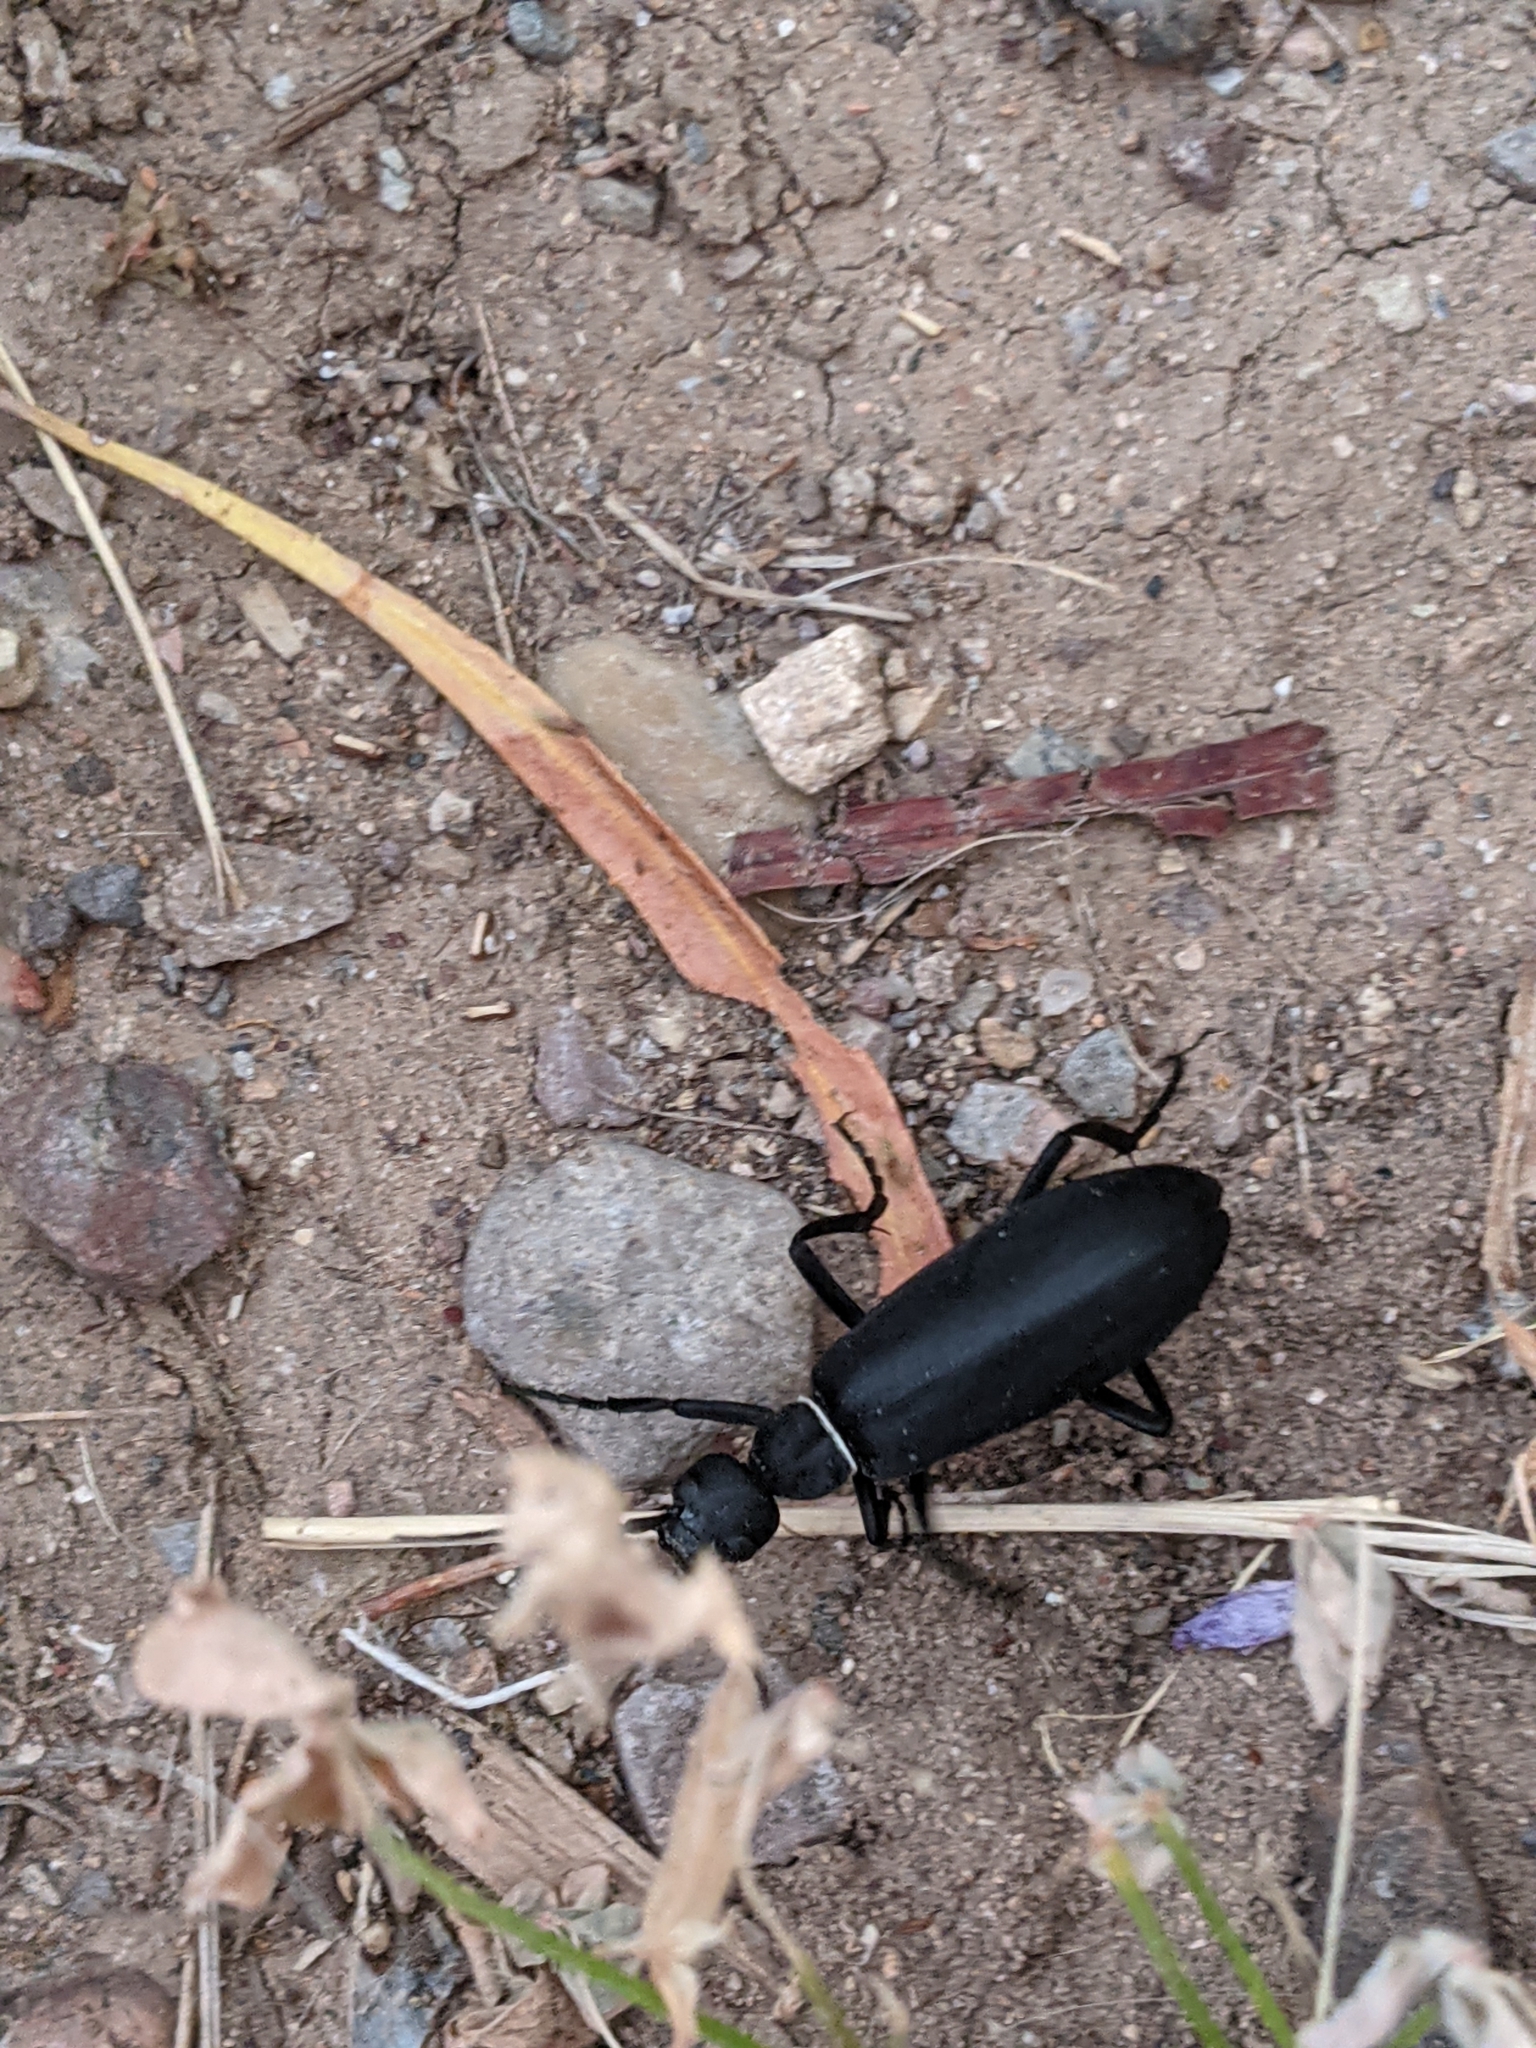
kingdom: Animalia
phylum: Arthropoda
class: Insecta
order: Coleoptera
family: Meloidae
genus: Epicauta
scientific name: Epicauta segmenta
